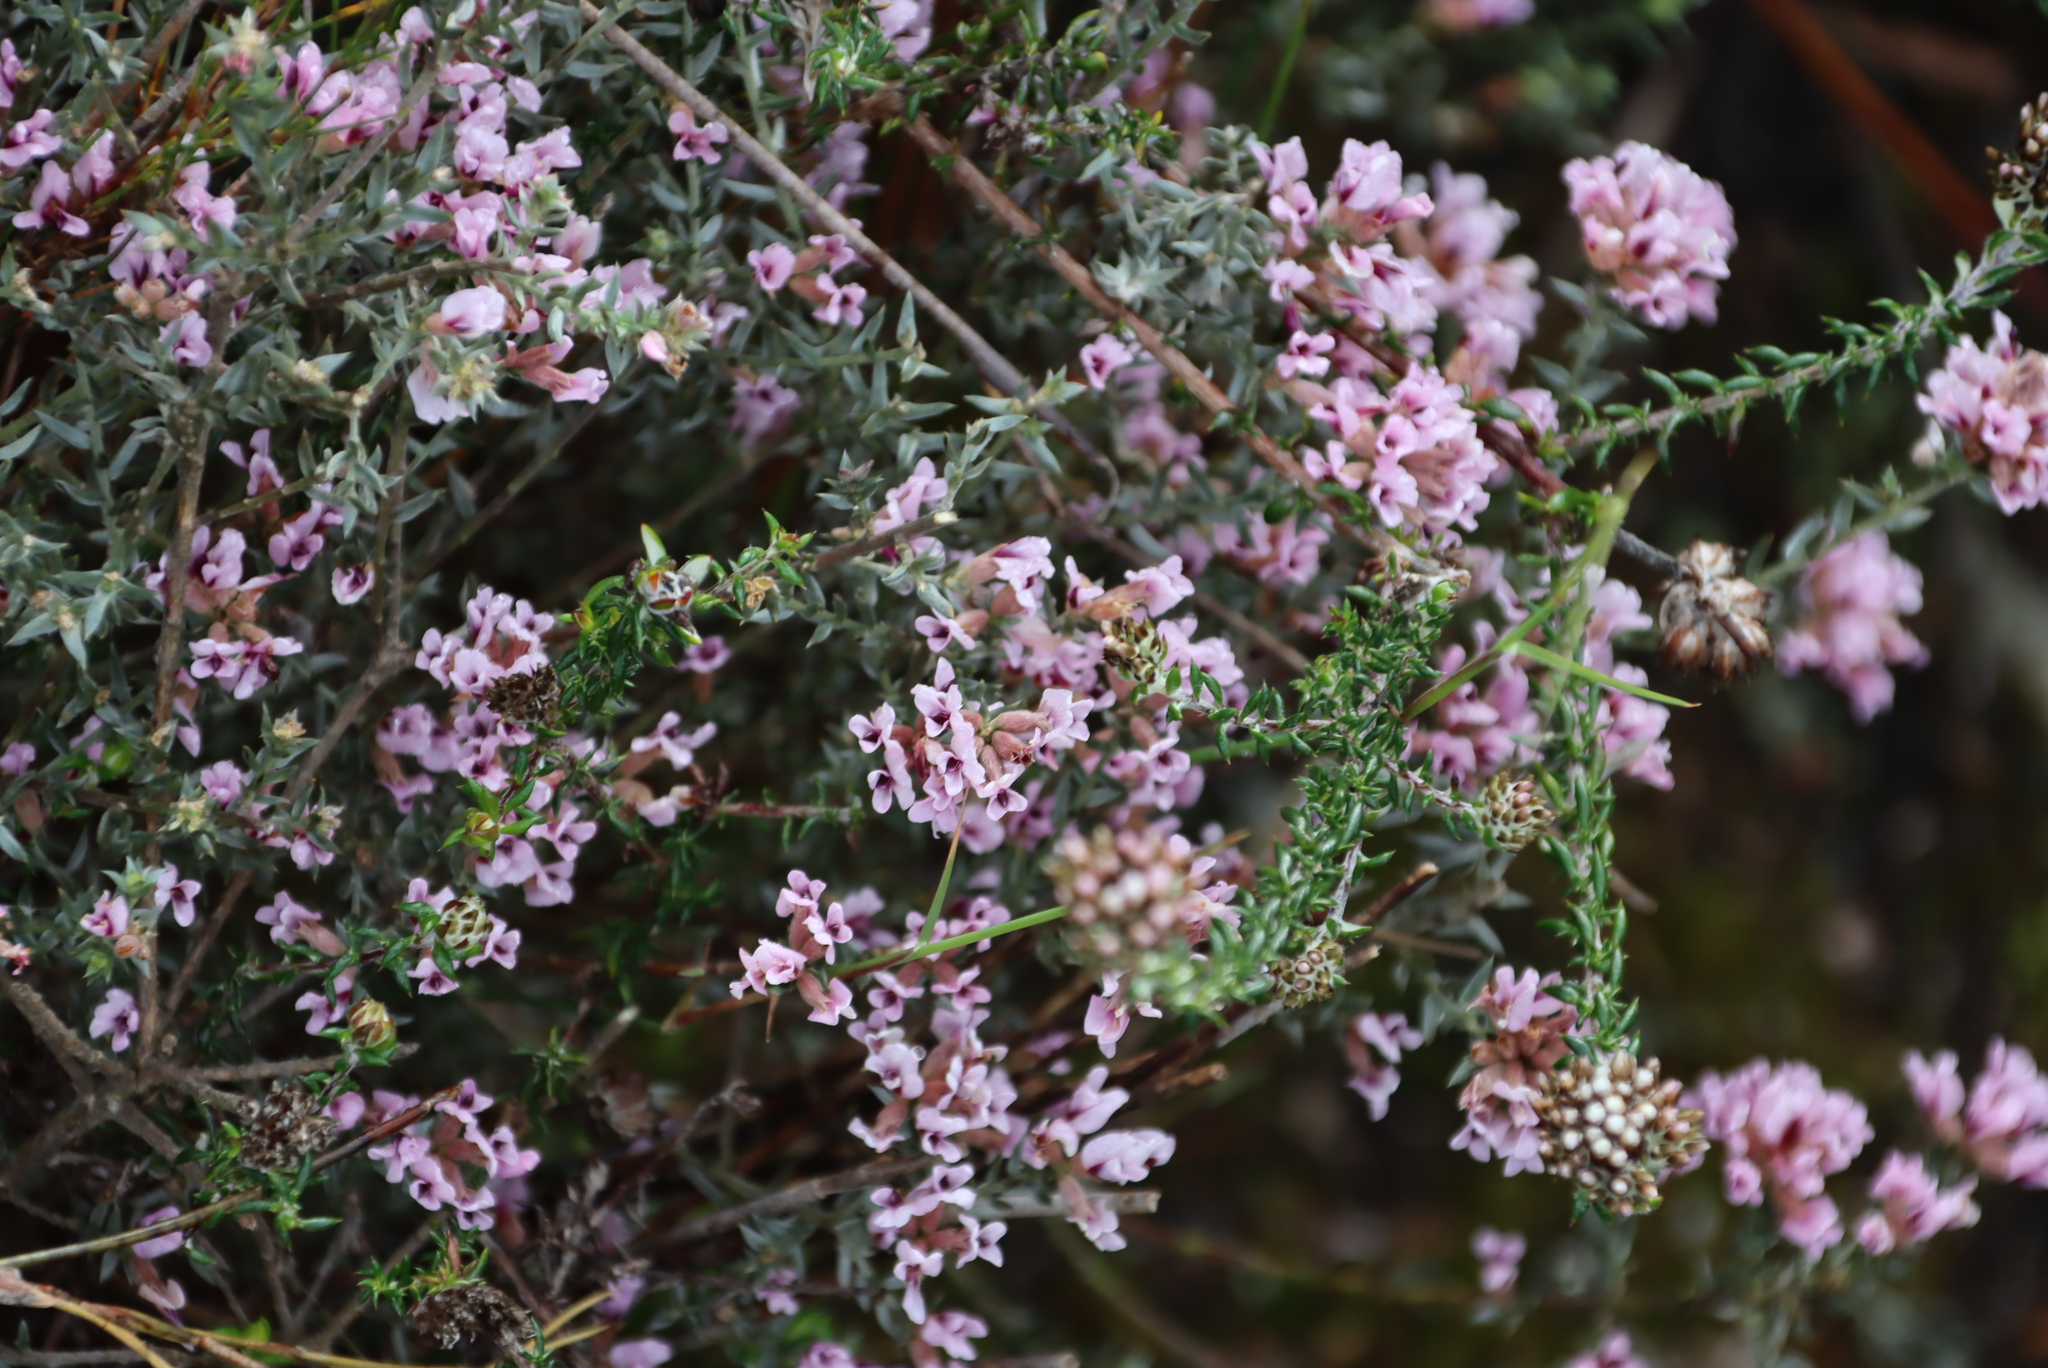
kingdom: Plantae
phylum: Tracheophyta
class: Magnoliopsida
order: Fabales
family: Fabaceae
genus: Amphithalea
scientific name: Amphithalea ericifolia
